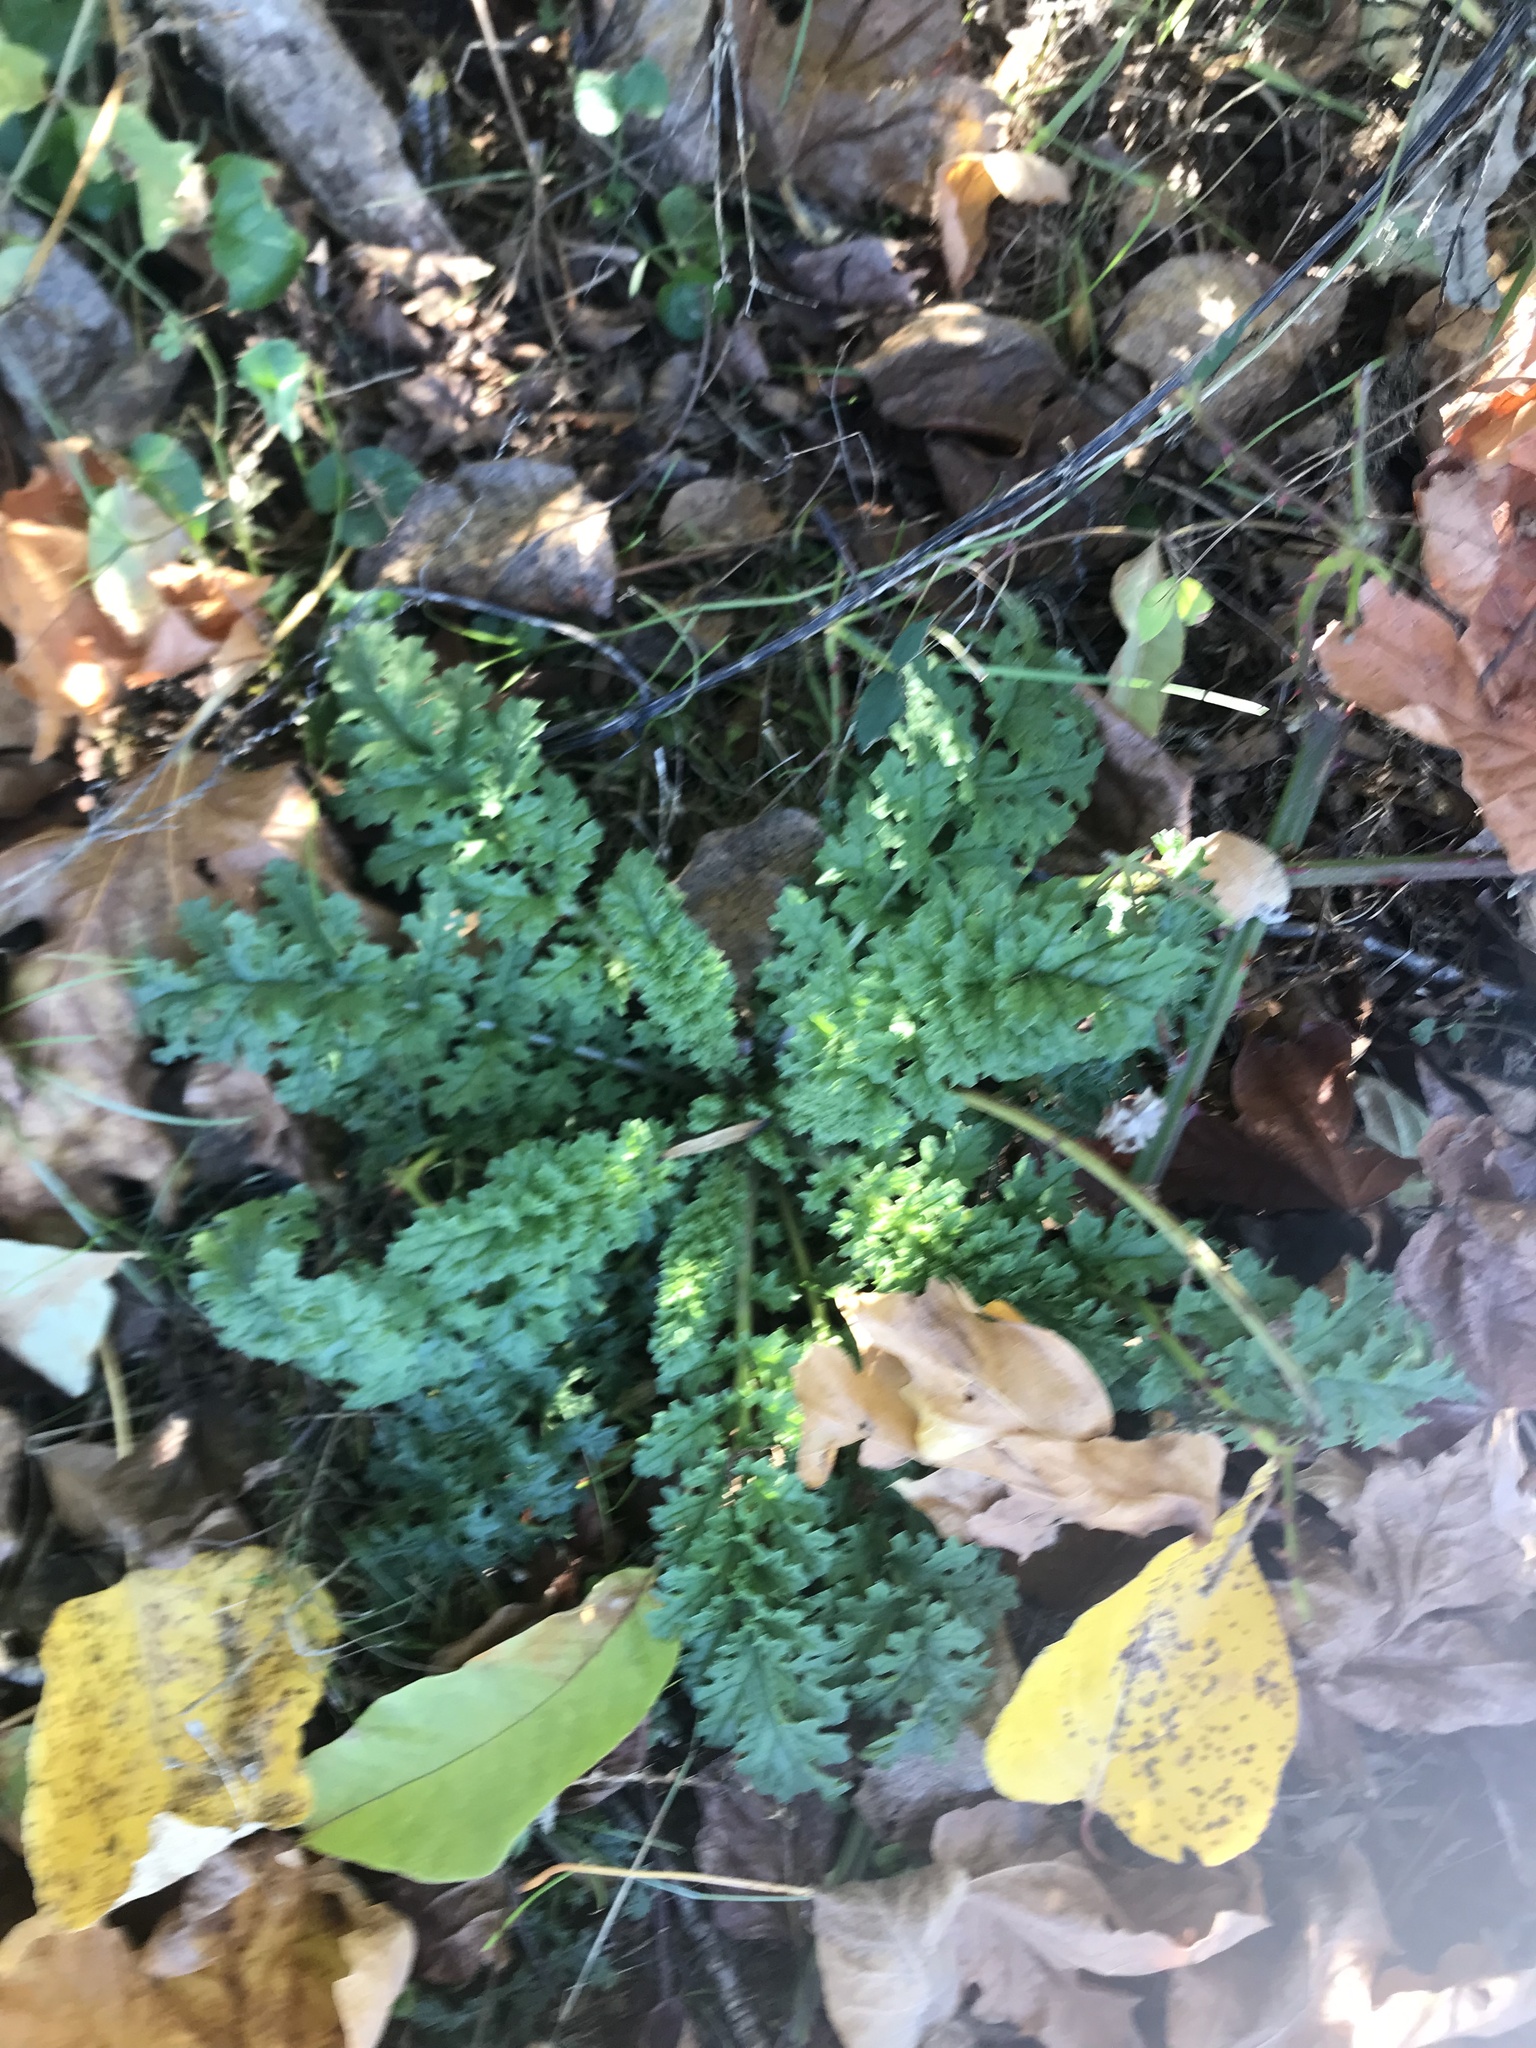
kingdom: Plantae
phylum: Tracheophyta
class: Magnoliopsida
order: Asterales
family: Asteraceae
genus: Jacobaea
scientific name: Jacobaea vulgaris
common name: Stinking willie
